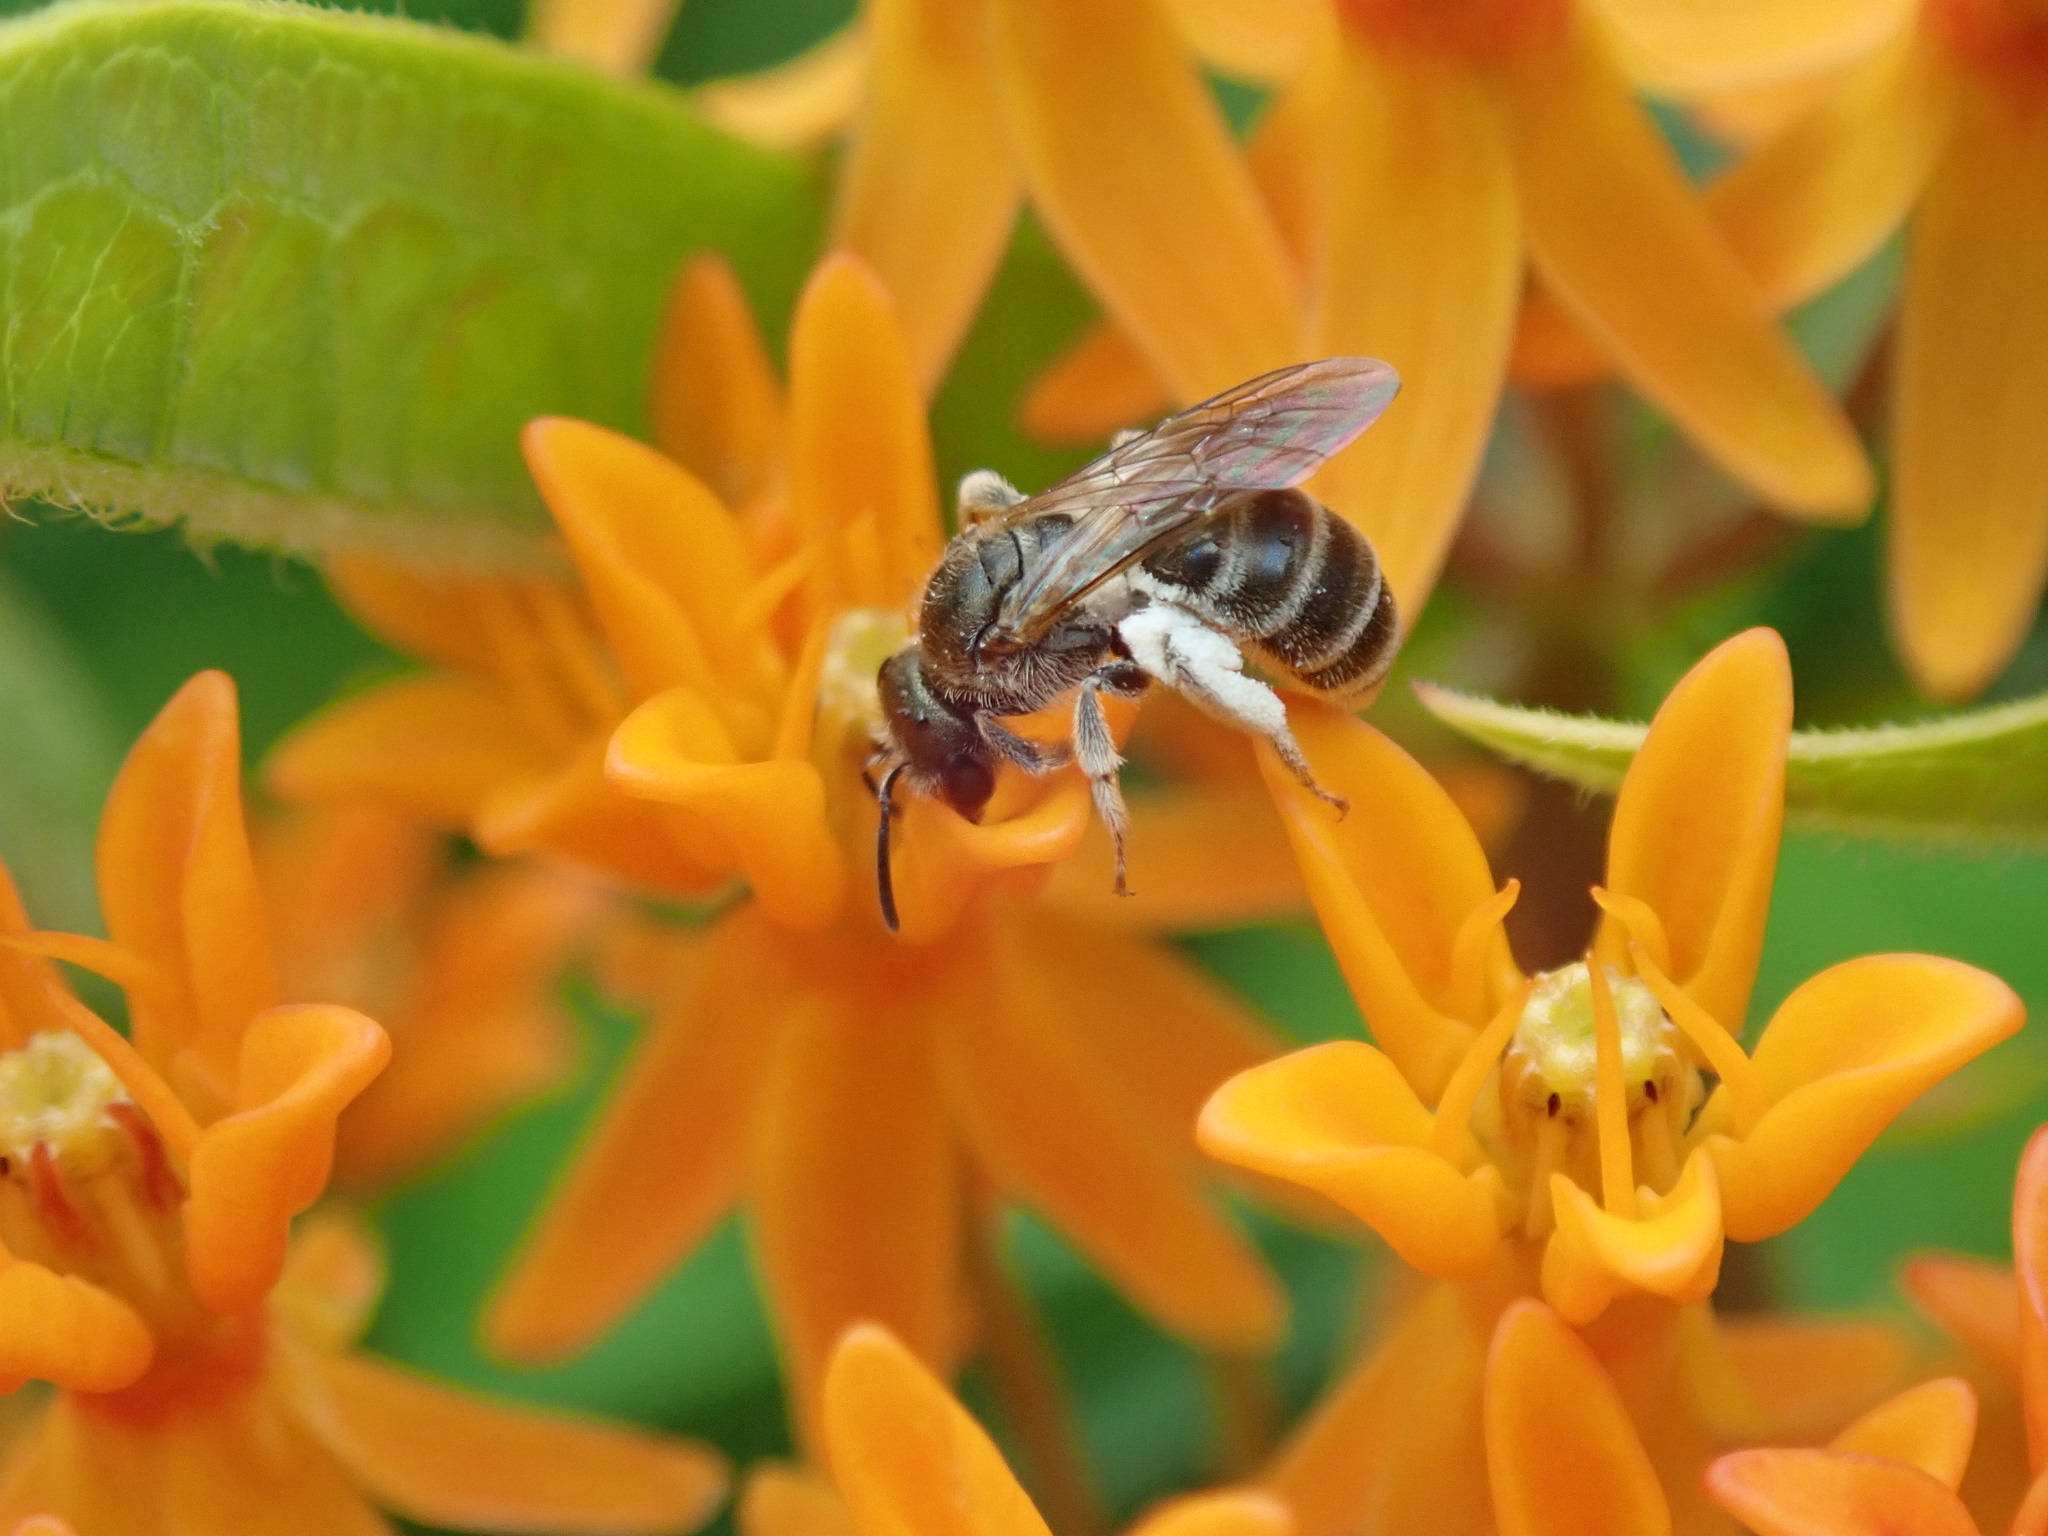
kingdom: Animalia
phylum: Arthropoda
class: Insecta
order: Hymenoptera
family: Halictidae
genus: Halictus
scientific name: Halictus confusus
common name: Southern bronze furrow bee
